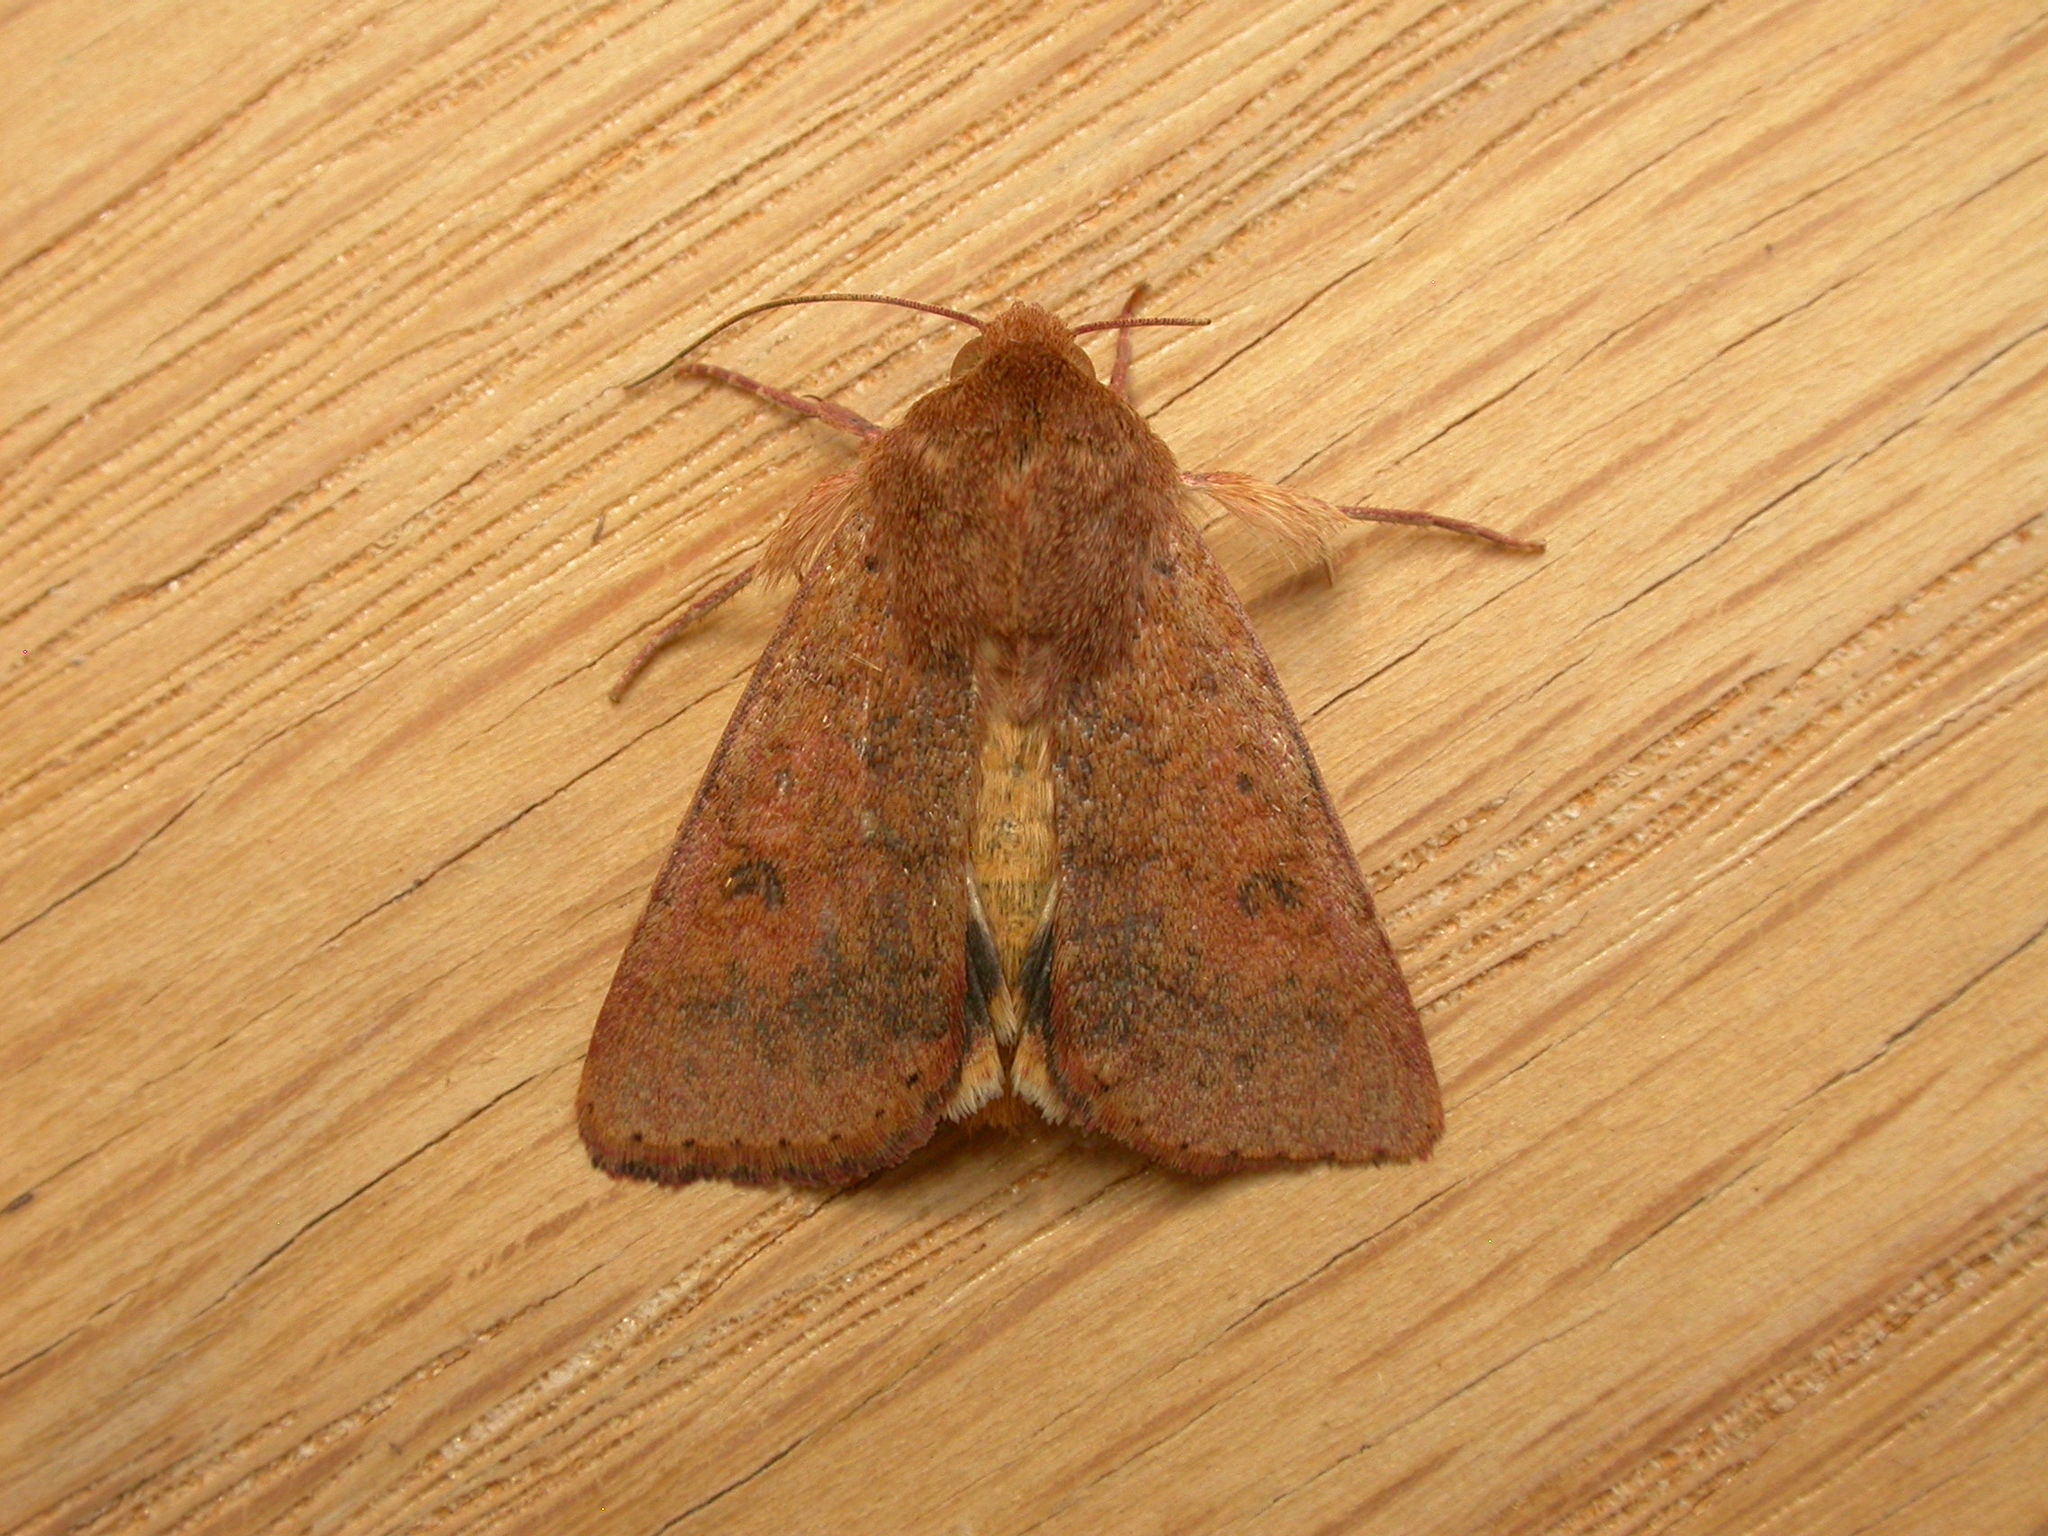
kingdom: Animalia
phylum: Arthropoda
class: Insecta
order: Lepidoptera
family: Noctuidae
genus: Australothis
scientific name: Australothis rubrescens
